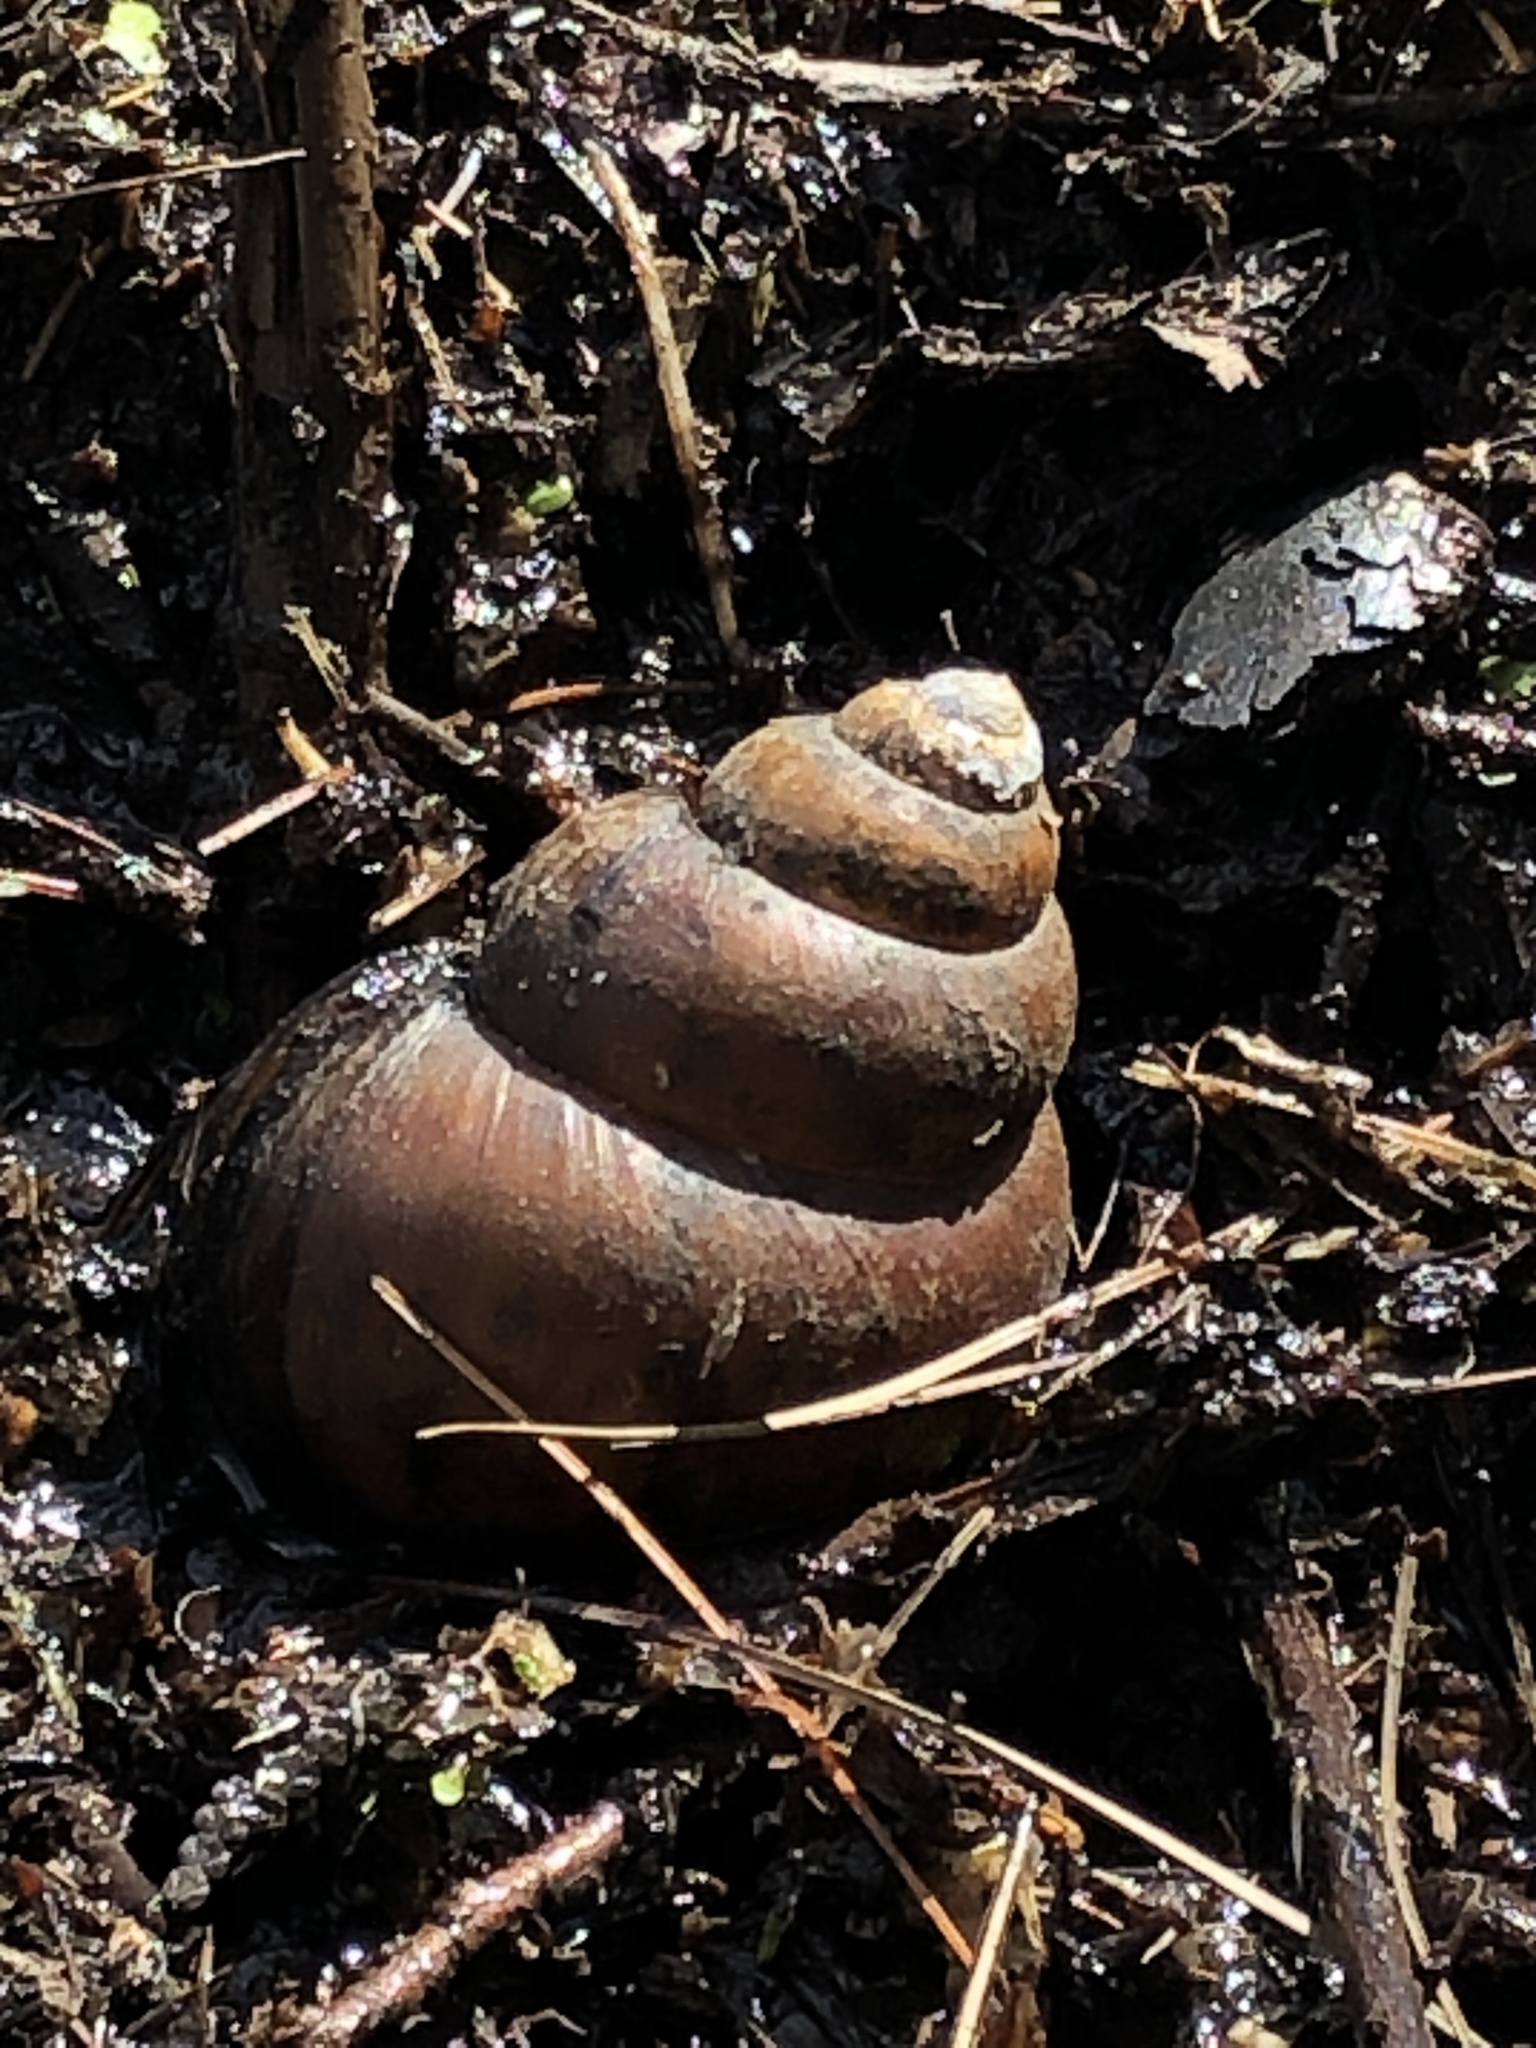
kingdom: Animalia
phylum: Mollusca
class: Gastropoda
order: Architaenioglossa
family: Viviparidae
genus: Cipangopaludina
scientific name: Cipangopaludina chinensis
